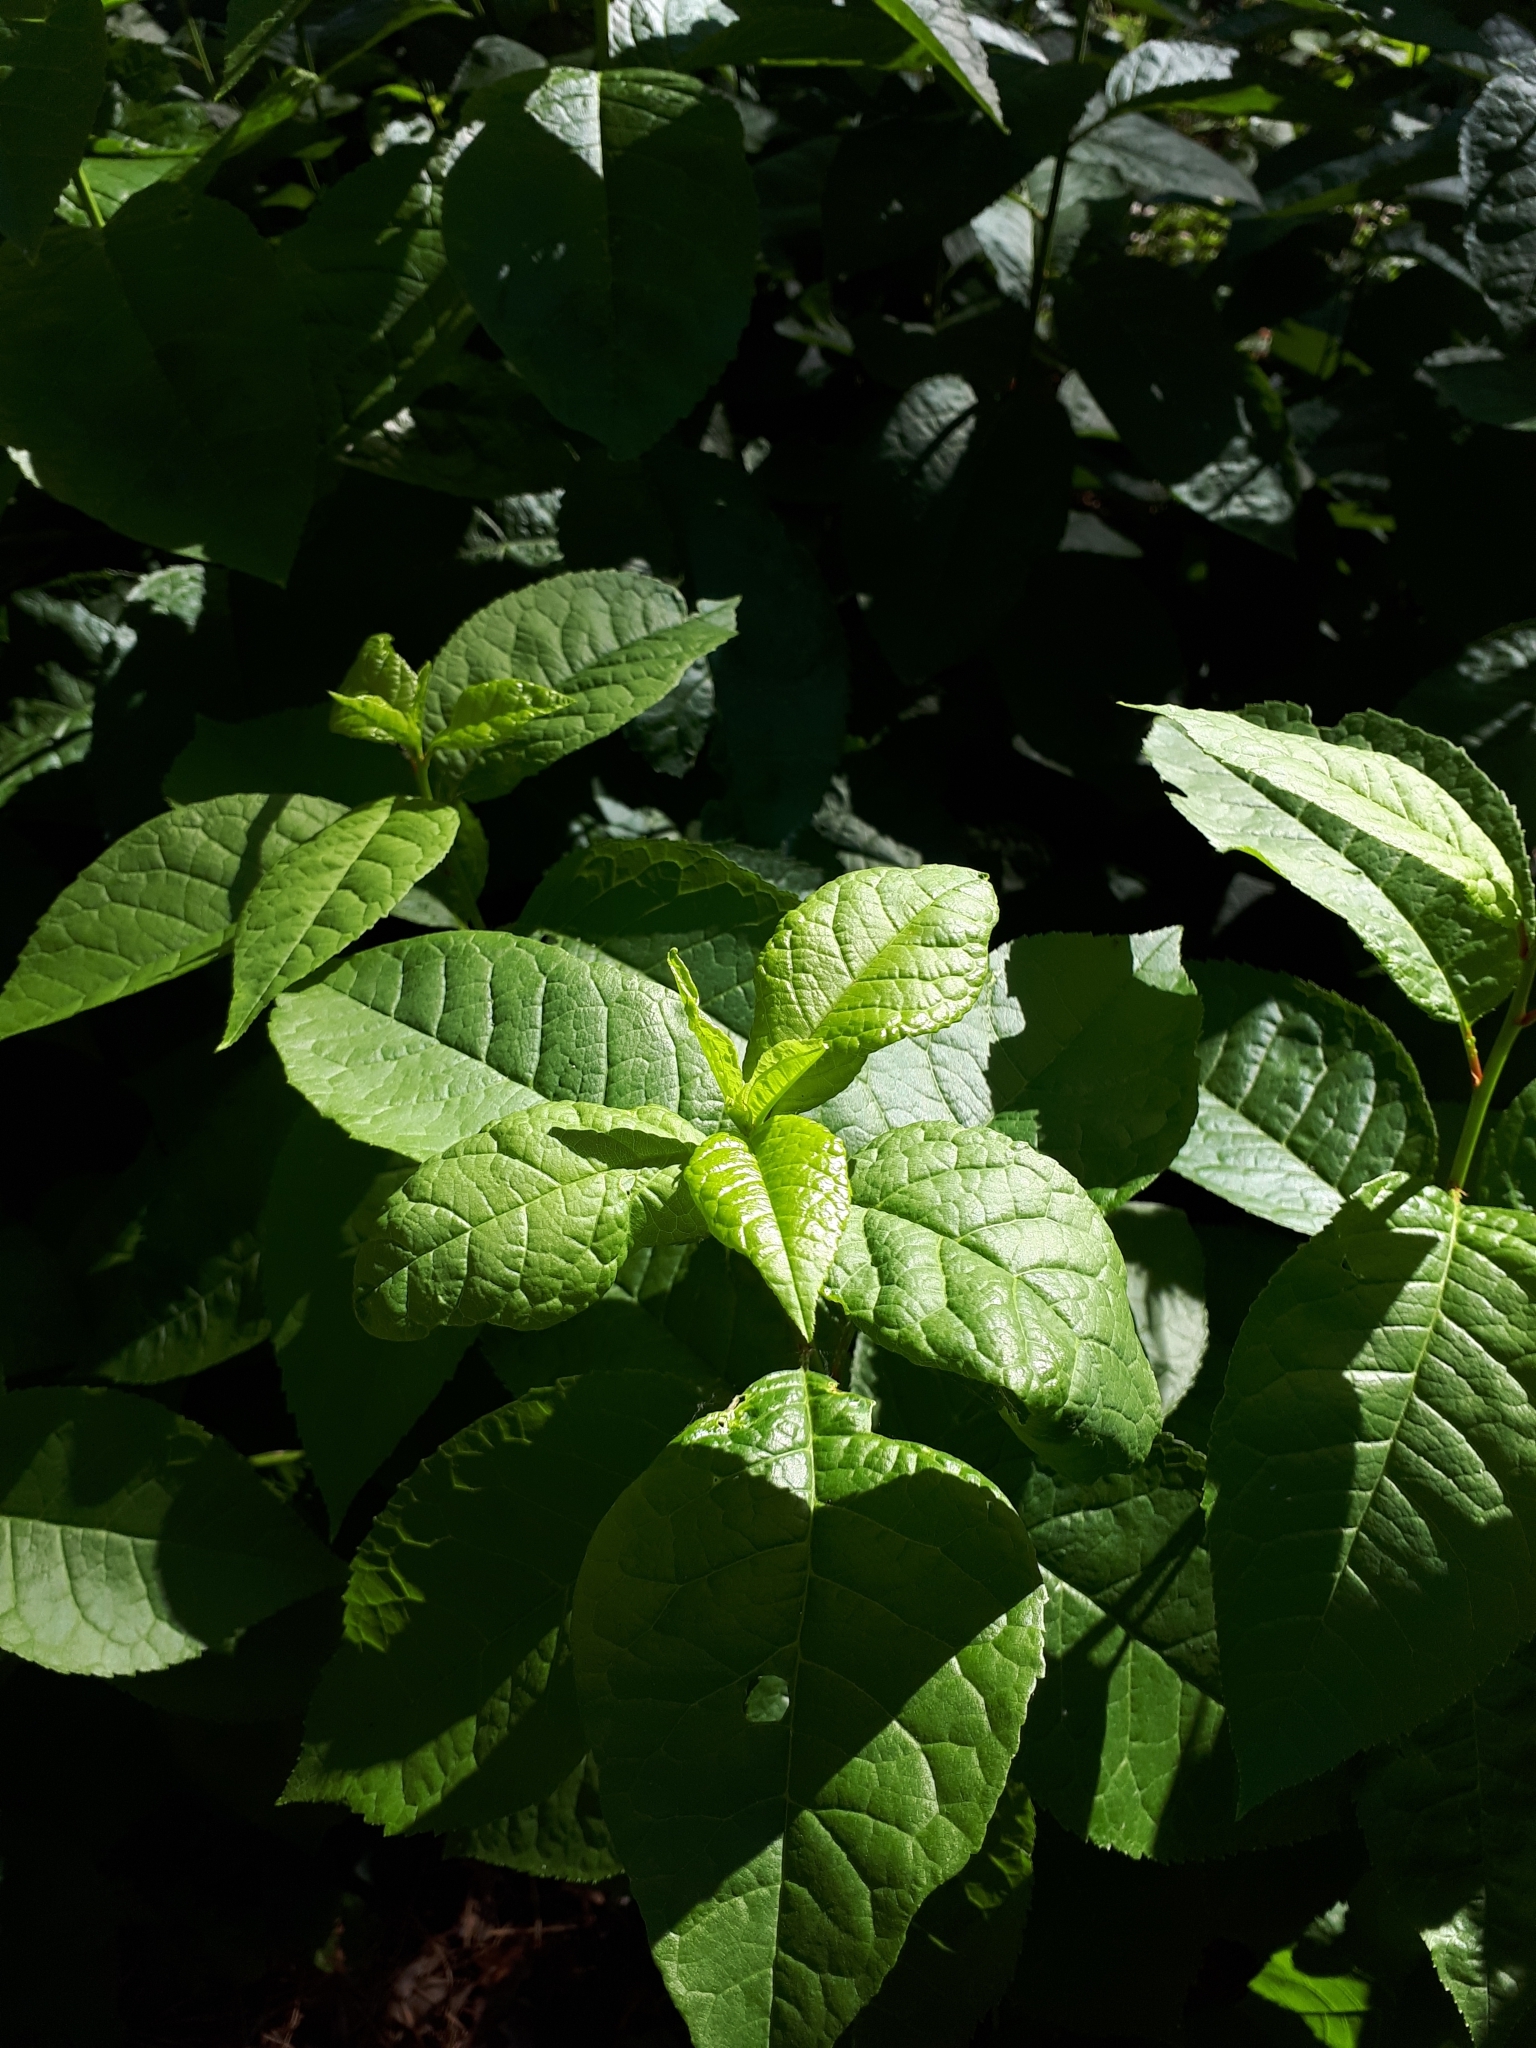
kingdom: Plantae
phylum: Tracheophyta
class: Magnoliopsida
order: Rosales
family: Rosaceae
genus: Prunus
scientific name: Prunus padus
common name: Bird cherry
